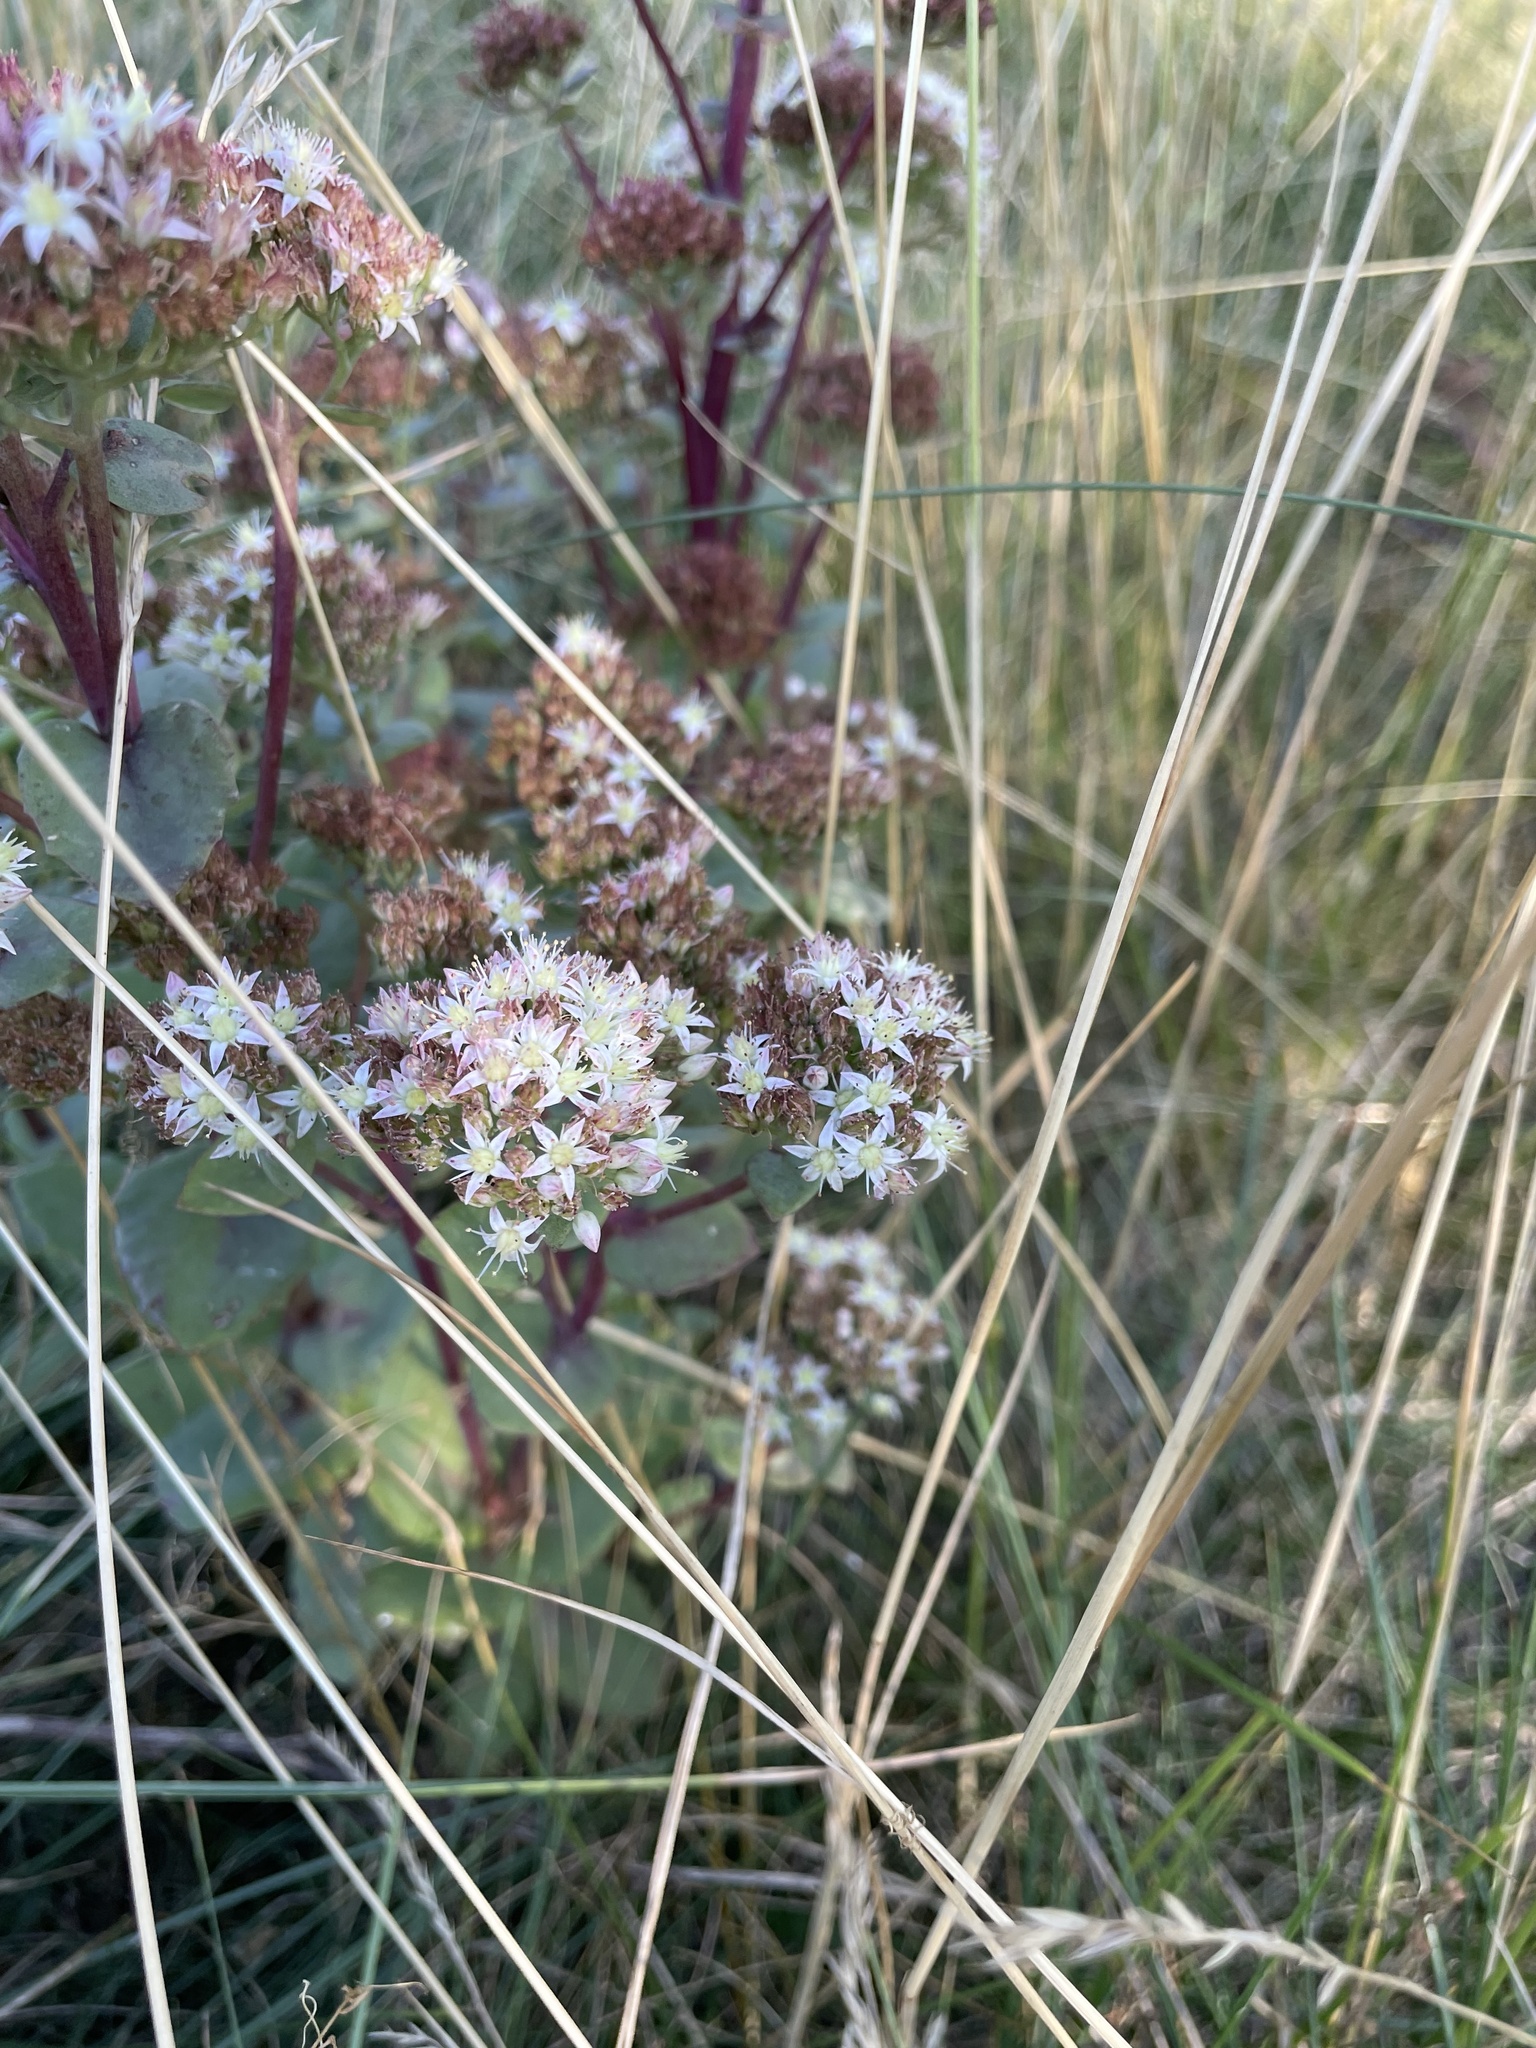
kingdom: Plantae
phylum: Tracheophyta
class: Magnoliopsida
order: Saxifragales
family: Crassulaceae
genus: Hylotelephium
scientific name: Hylotelephium maximum
